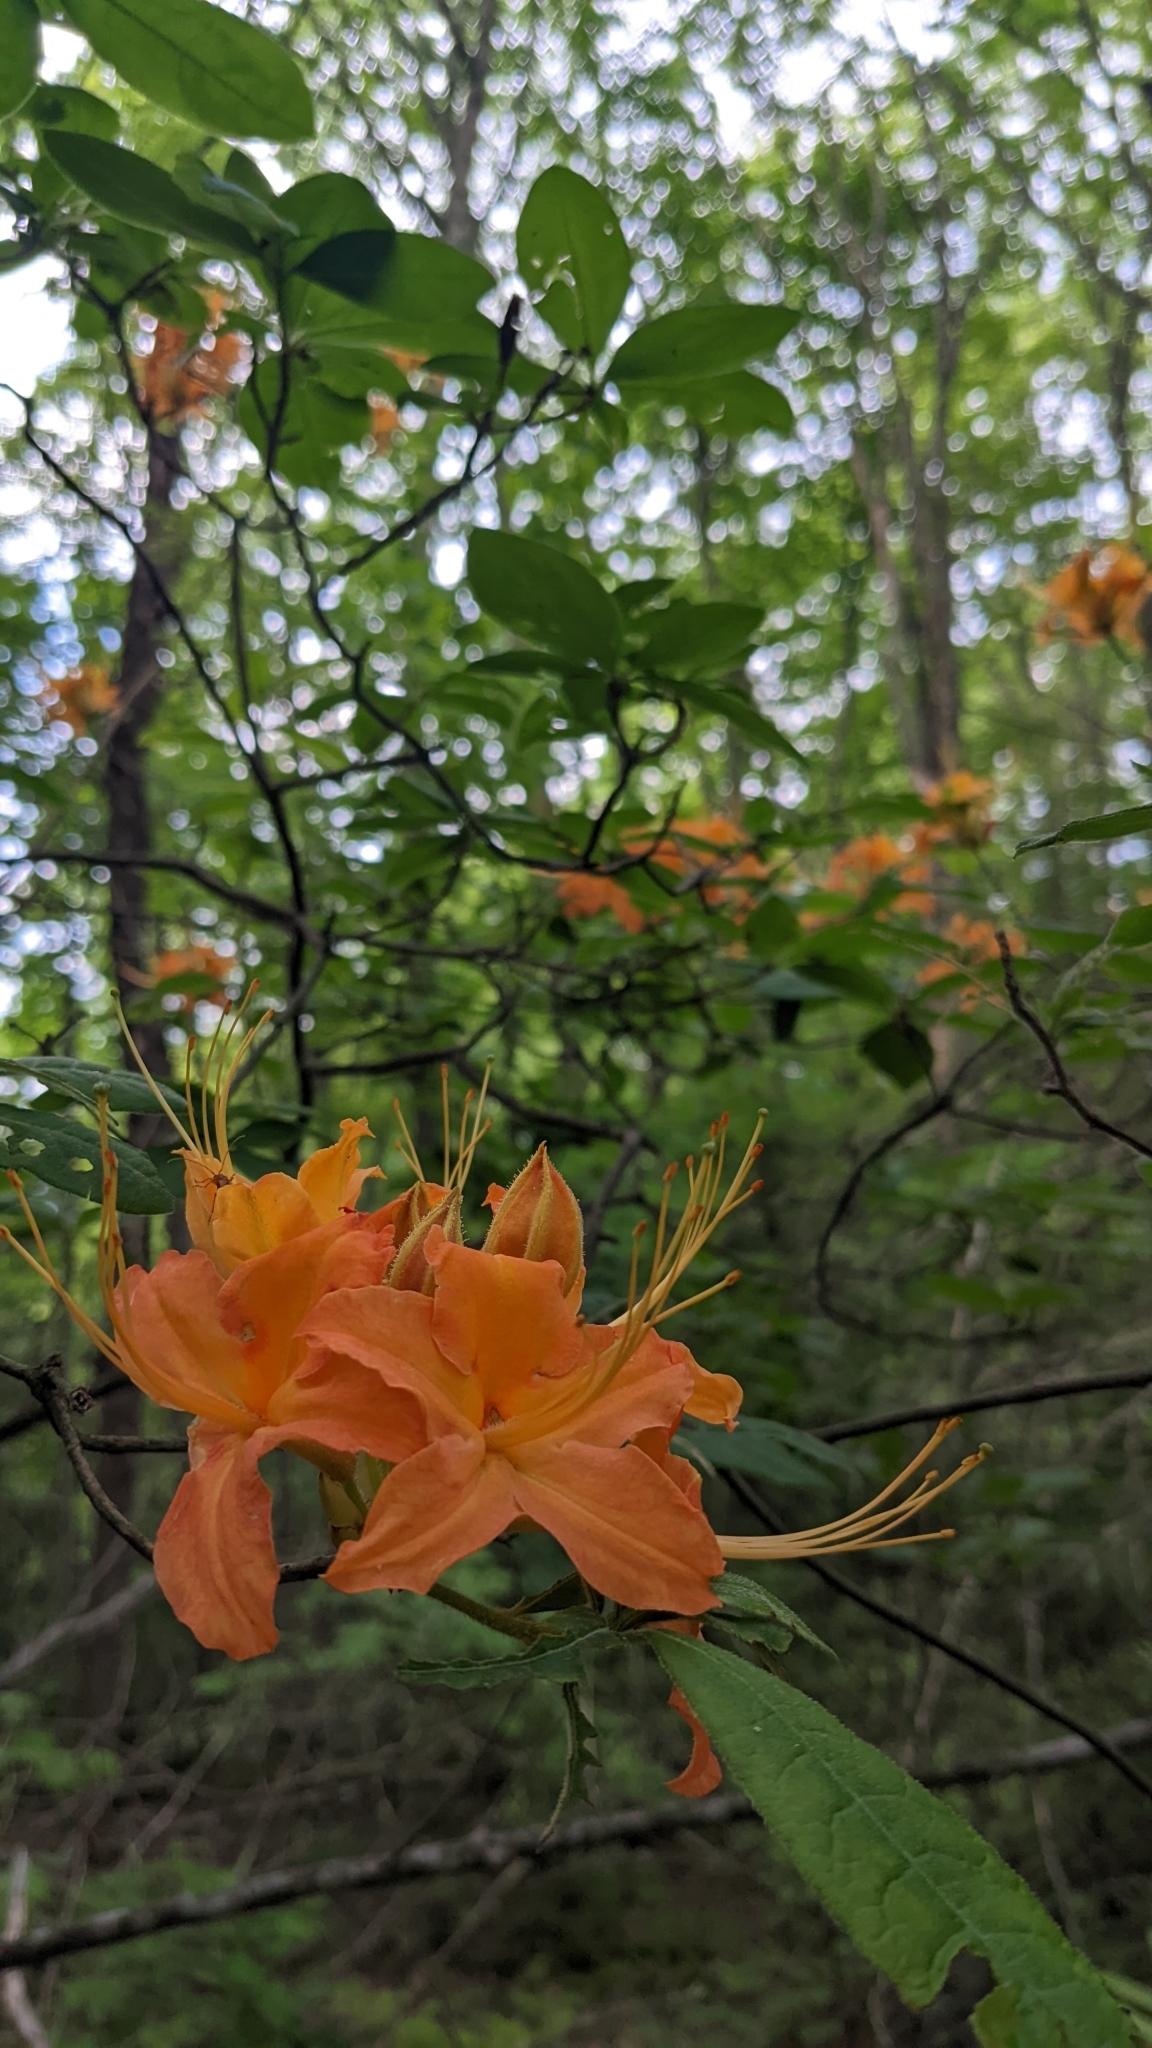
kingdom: Plantae
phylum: Tracheophyta
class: Magnoliopsida
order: Ericales
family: Ericaceae
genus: Rhododendron
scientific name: Rhododendron calendulaceum
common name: Flame azalea
